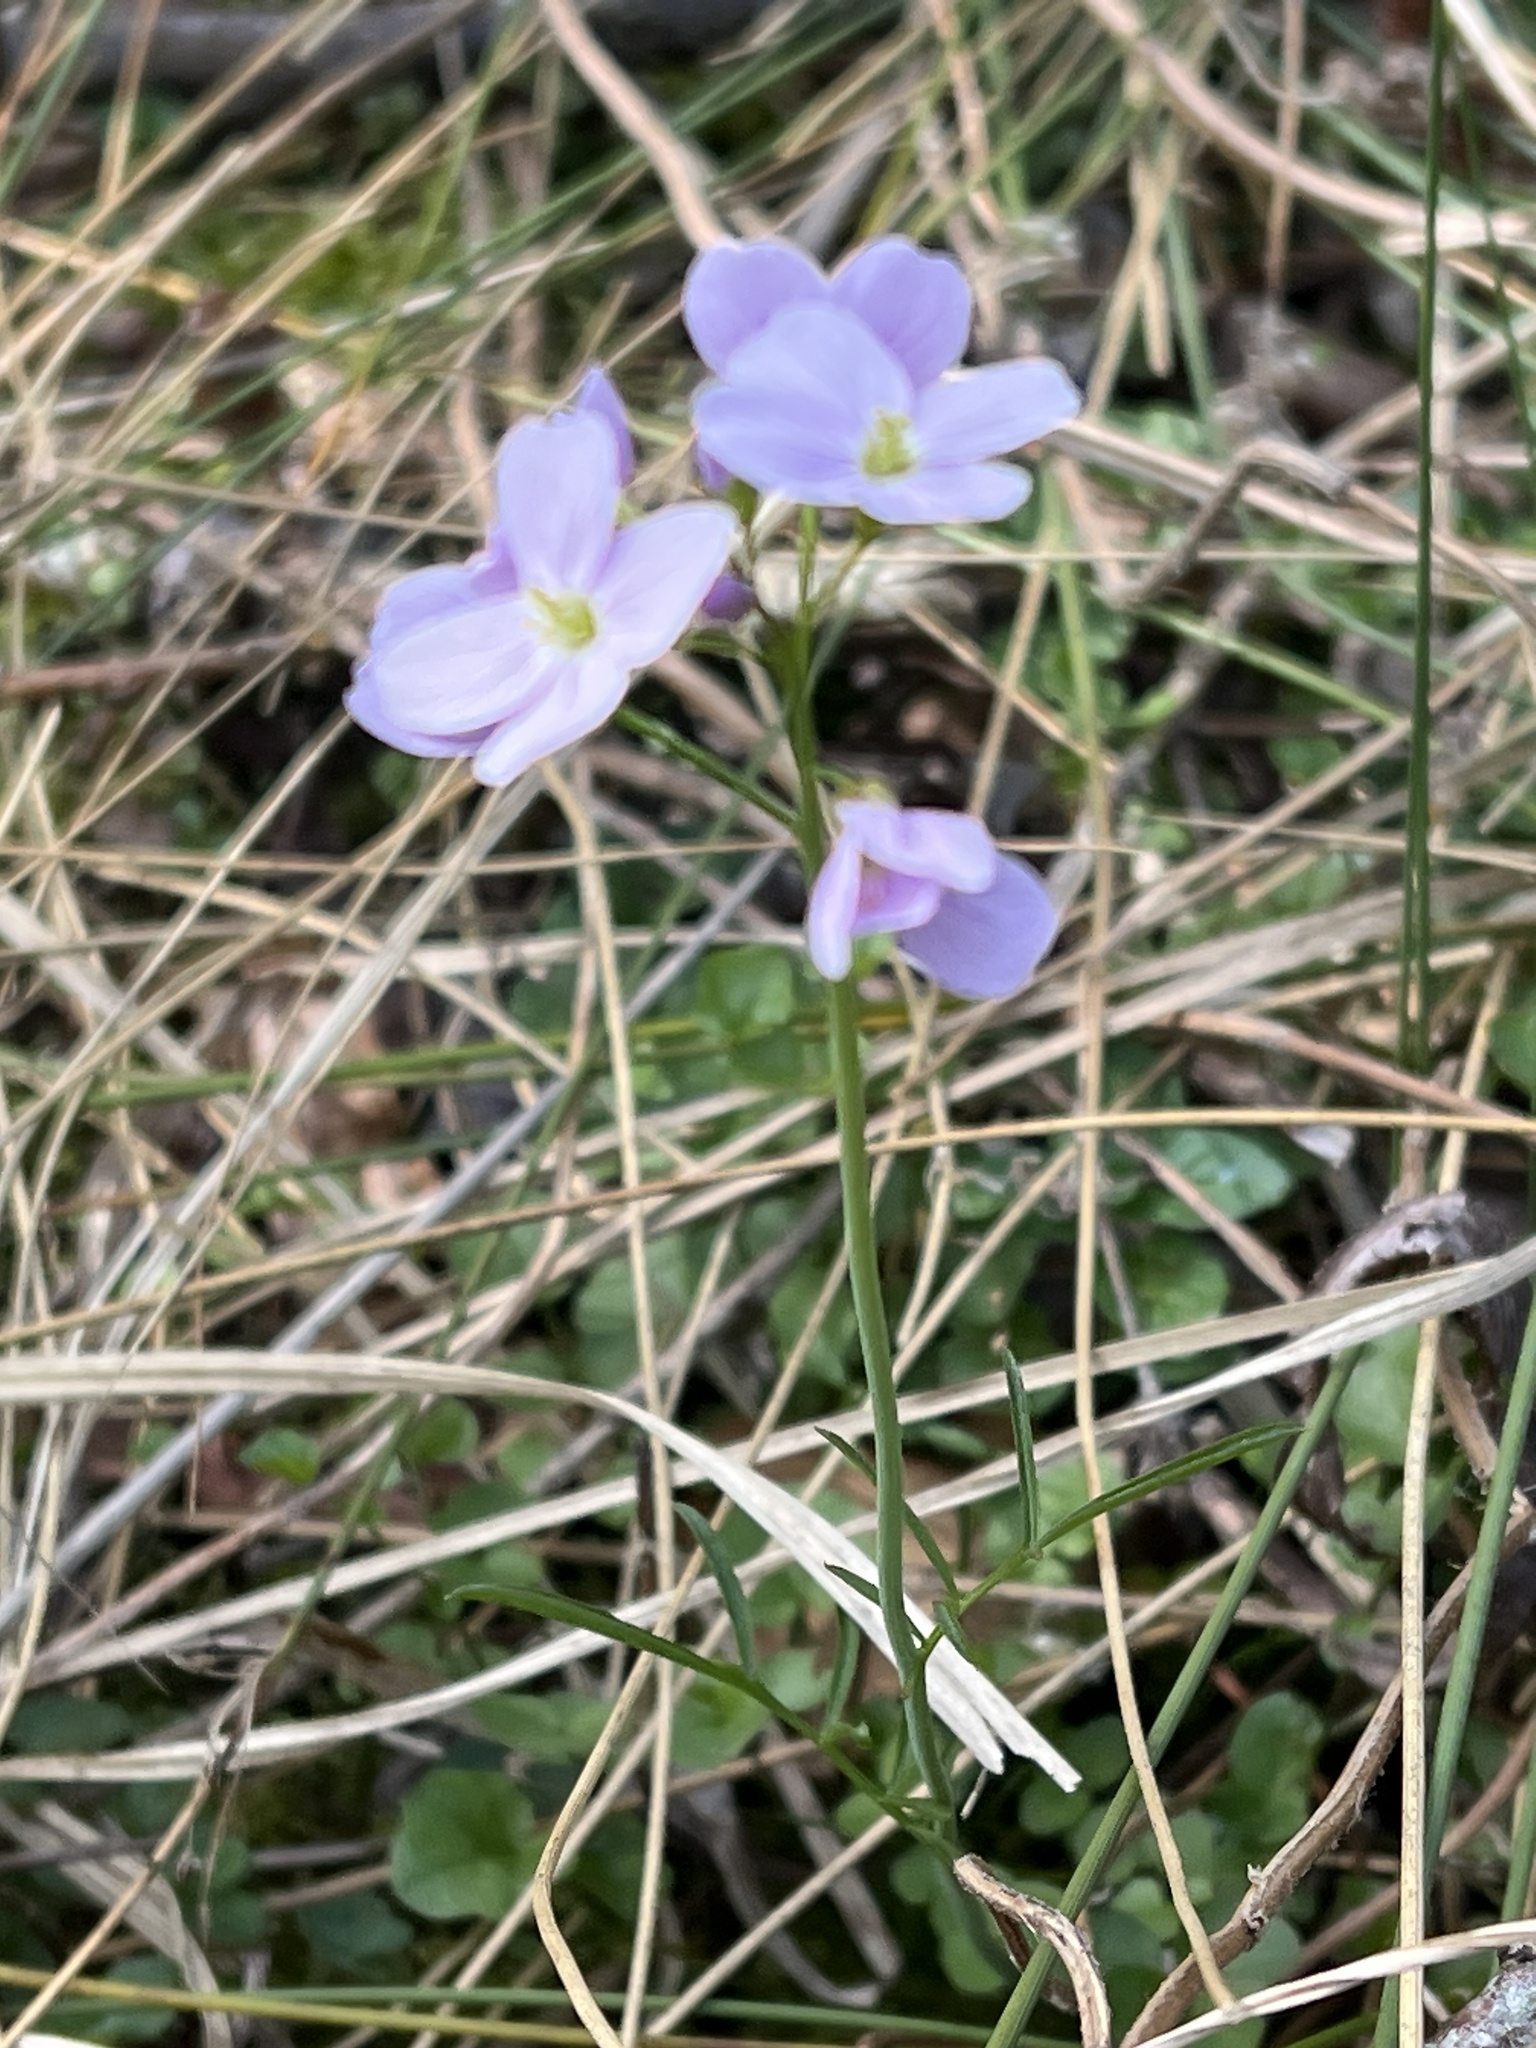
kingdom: Plantae
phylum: Tracheophyta
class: Magnoliopsida
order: Brassicales
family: Brassicaceae
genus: Cardamine
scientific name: Cardamine pratensis
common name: Cuckoo flower
